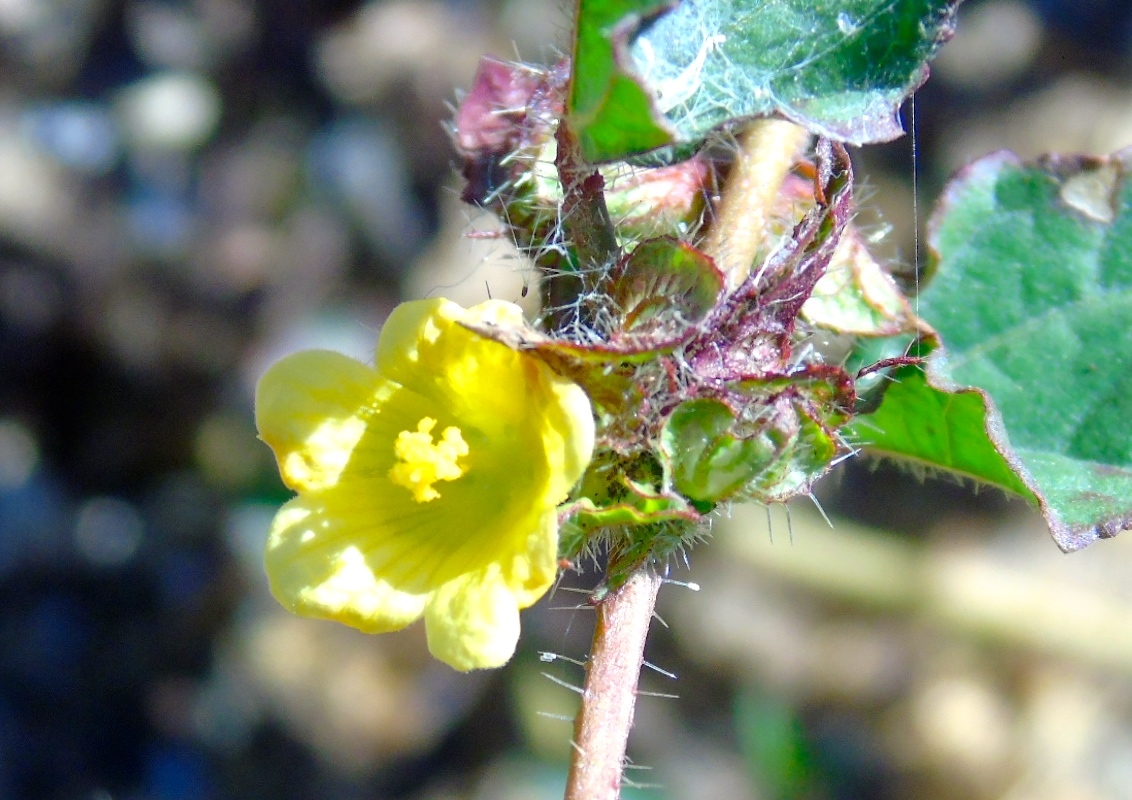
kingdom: Plantae
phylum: Tracheophyta
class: Magnoliopsida
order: Malvales
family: Malvaceae
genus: Malachra
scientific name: Malachra alceifolia
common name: Yellow leafbract
